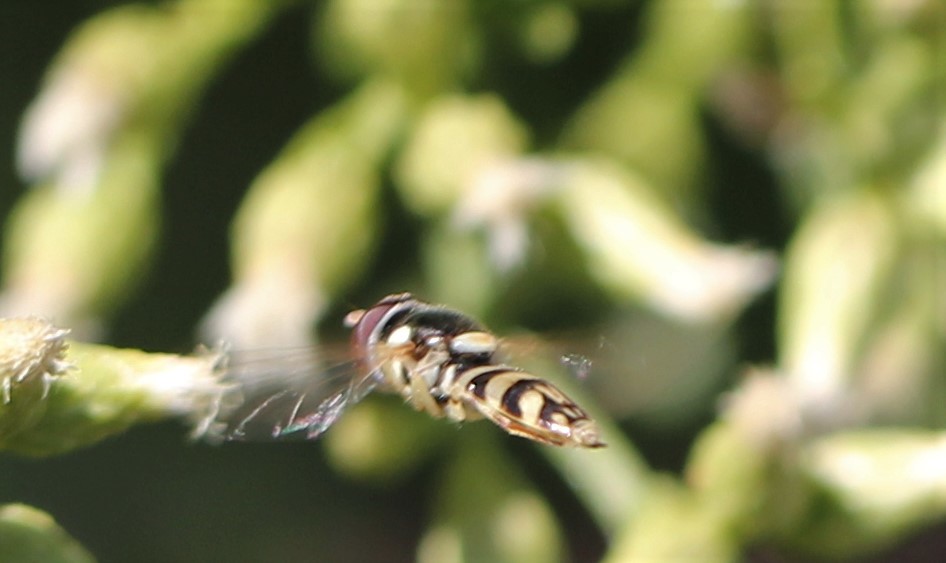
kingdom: Animalia
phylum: Arthropoda
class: Insecta
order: Diptera
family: Syrphidae
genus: Allograpta
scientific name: Allograpta obliqua
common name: Common oblique syrphid
